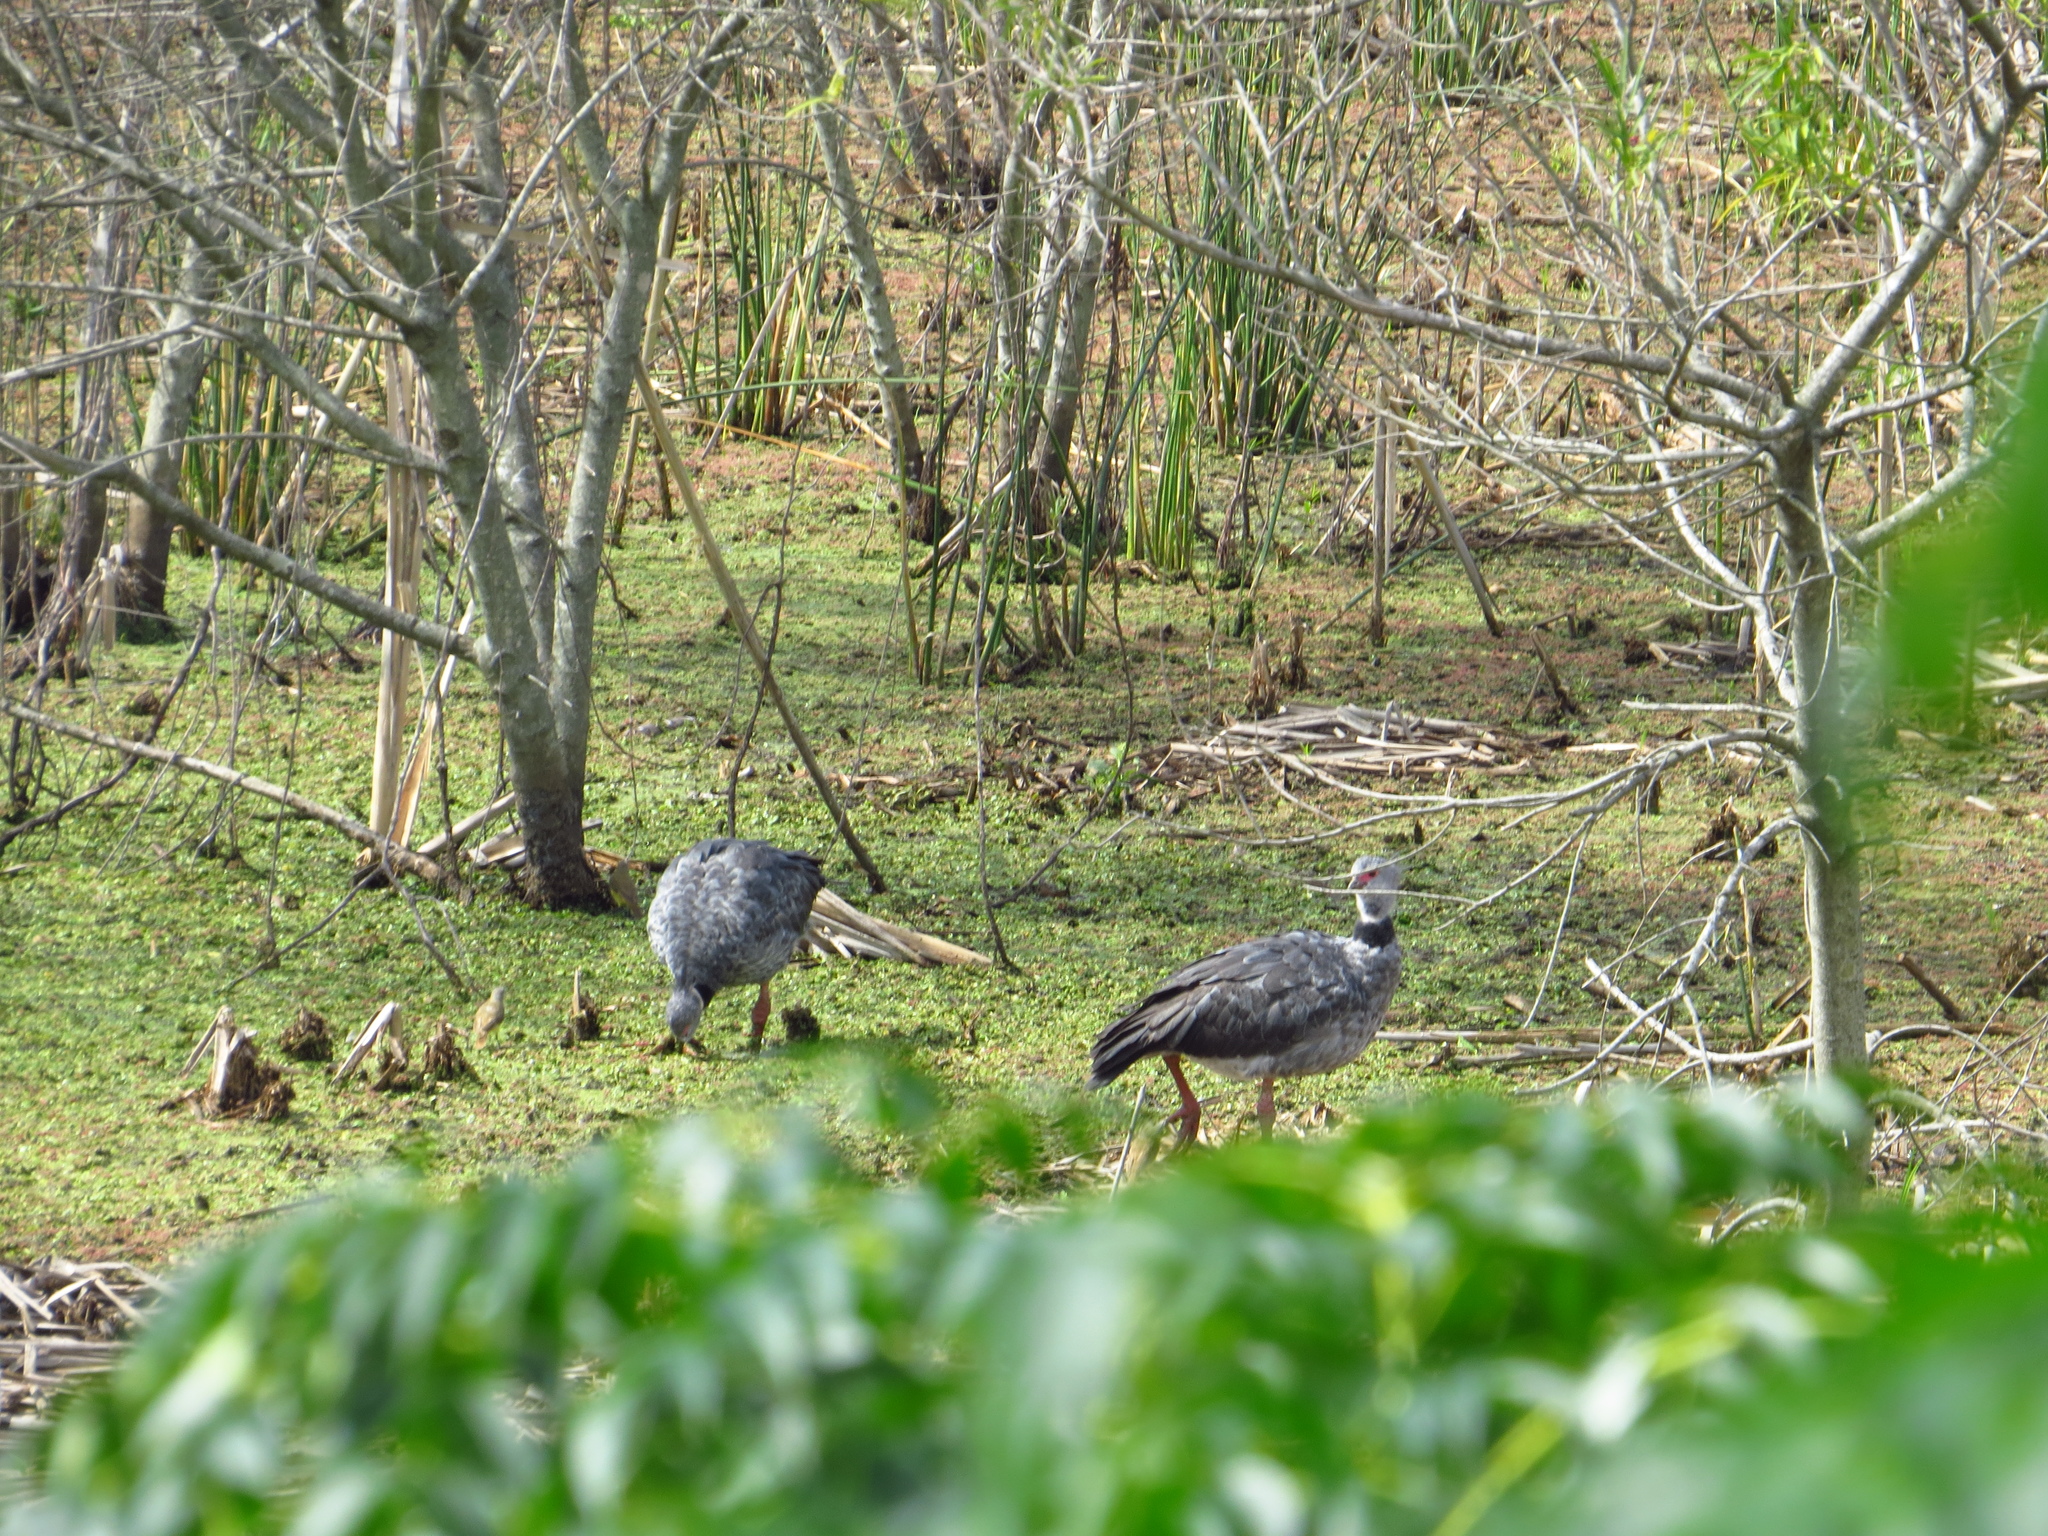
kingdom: Animalia
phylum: Chordata
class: Aves
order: Anseriformes
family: Anhimidae
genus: Chauna
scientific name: Chauna torquata
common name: Southern screamer
